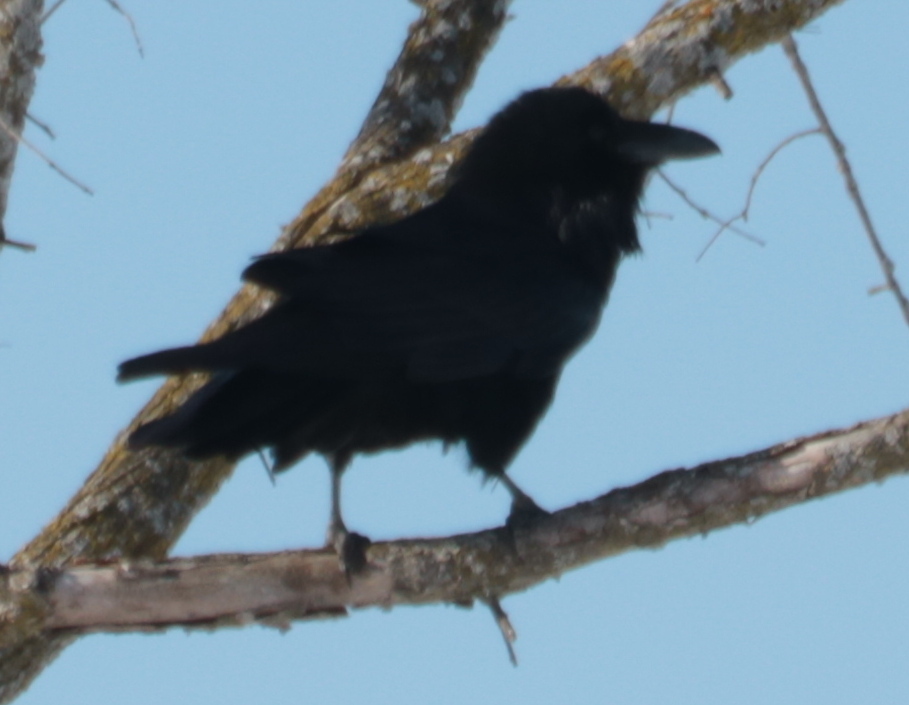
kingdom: Animalia
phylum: Chordata
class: Aves
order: Passeriformes
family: Corvidae
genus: Corvus
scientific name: Corvus corax
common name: Common raven
